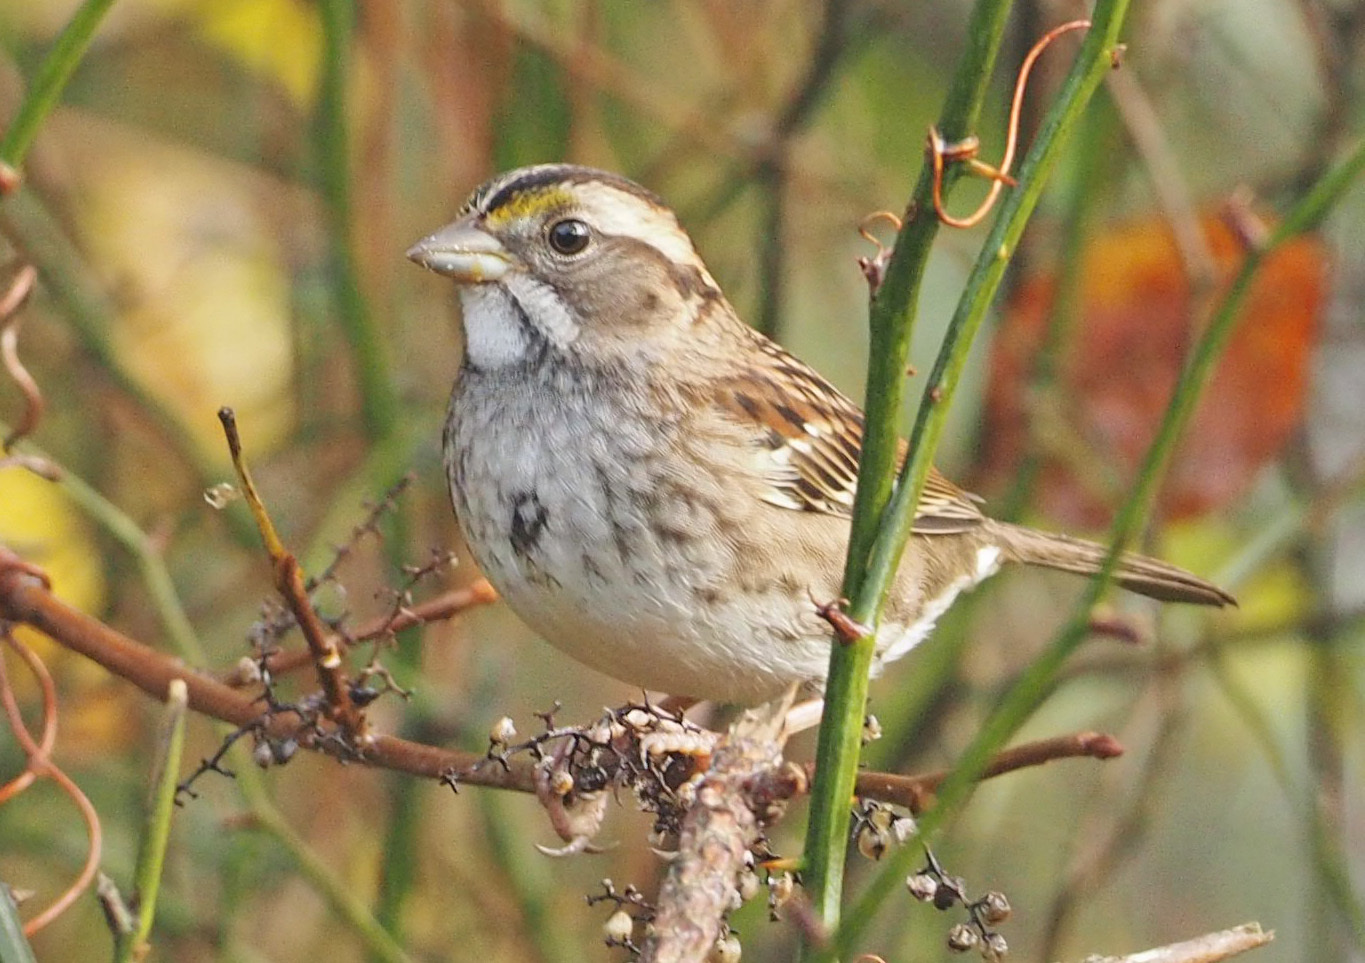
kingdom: Animalia
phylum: Chordata
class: Aves
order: Passeriformes
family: Passerellidae
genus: Zonotrichia
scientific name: Zonotrichia albicollis
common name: White-throated sparrow
